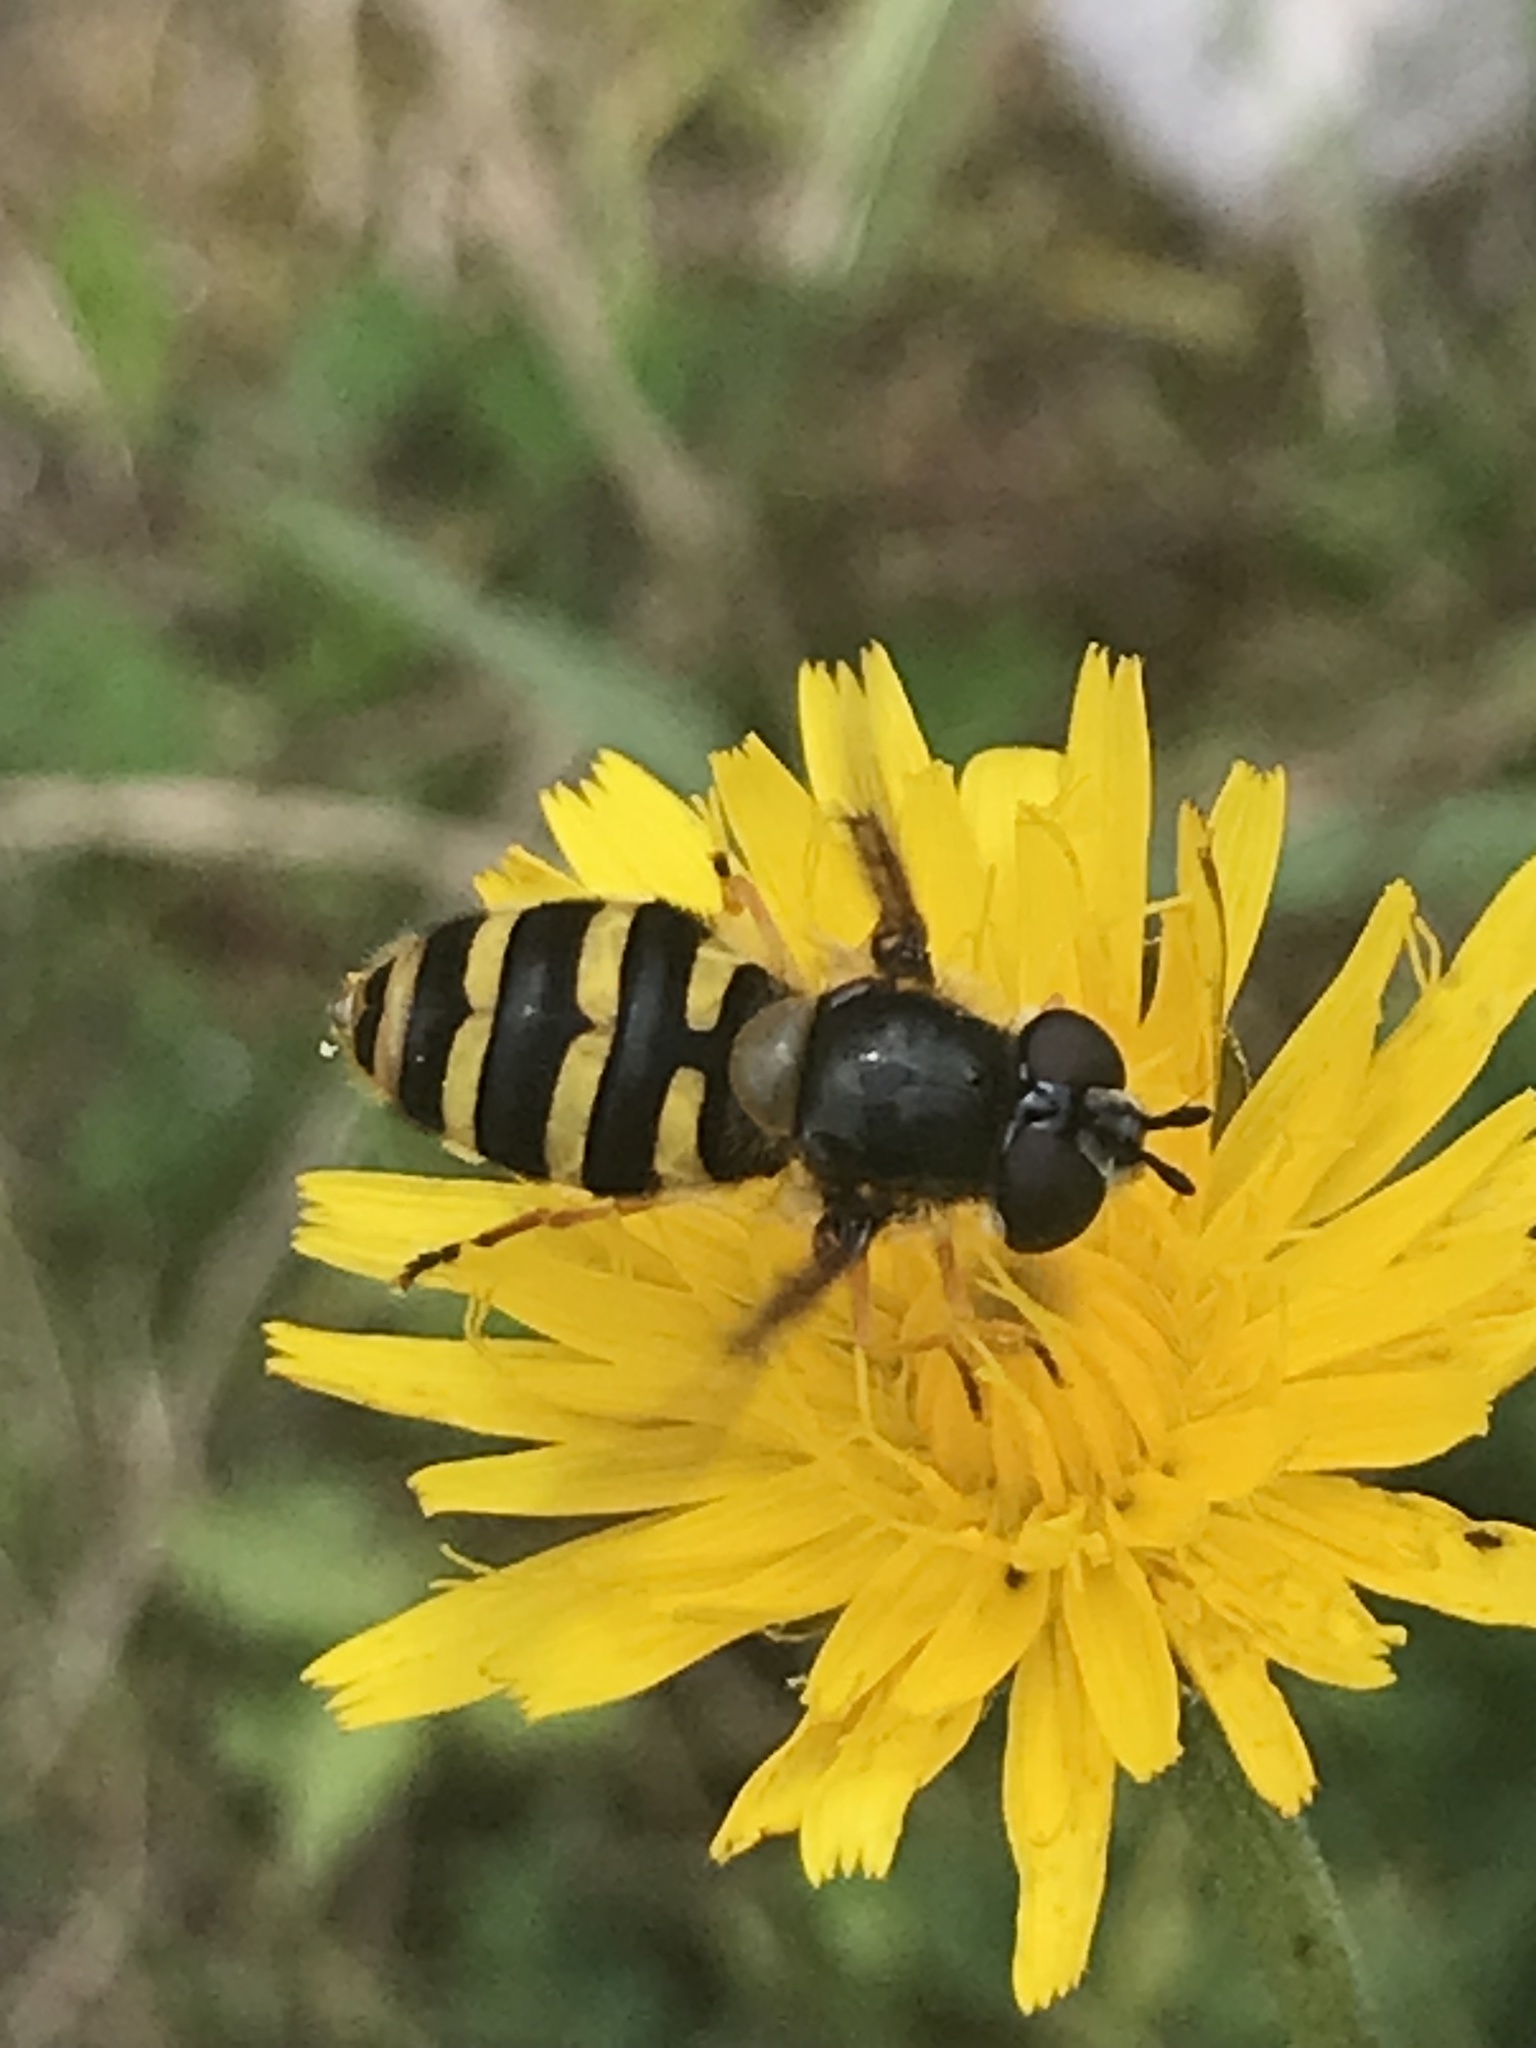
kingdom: Animalia
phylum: Arthropoda
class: Insecta
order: Diptera
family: Syrphidae
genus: Syrphus
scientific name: Syrphus
